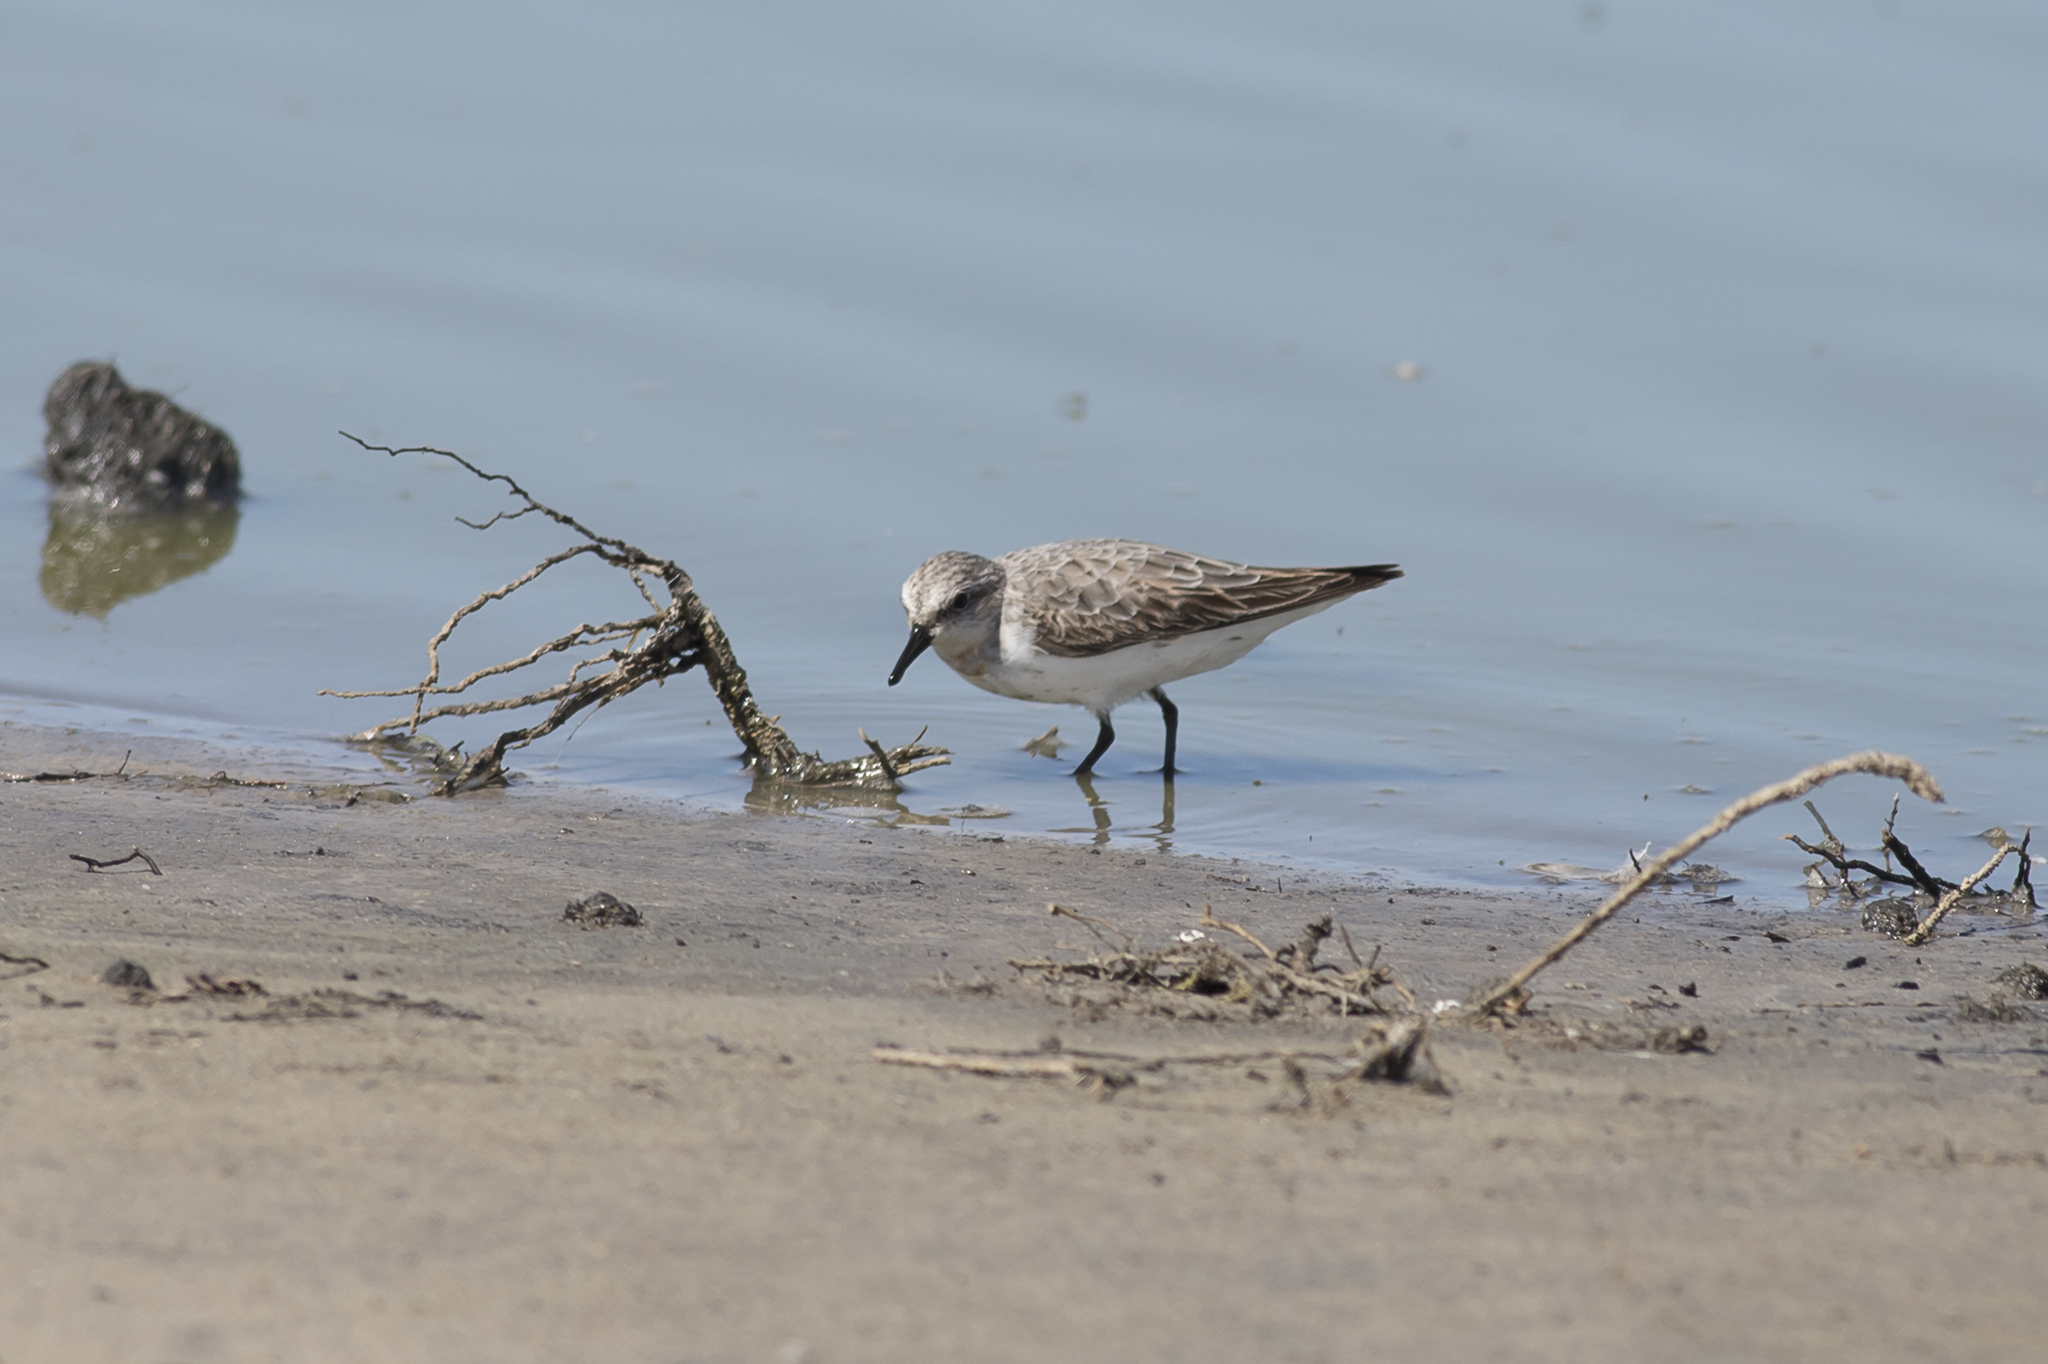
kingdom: Animalia
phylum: Chordata
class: Aves
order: Charadriiformes
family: Scolopacidae
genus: Calidris
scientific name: Calidris ruficollis
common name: Red-necked stint
